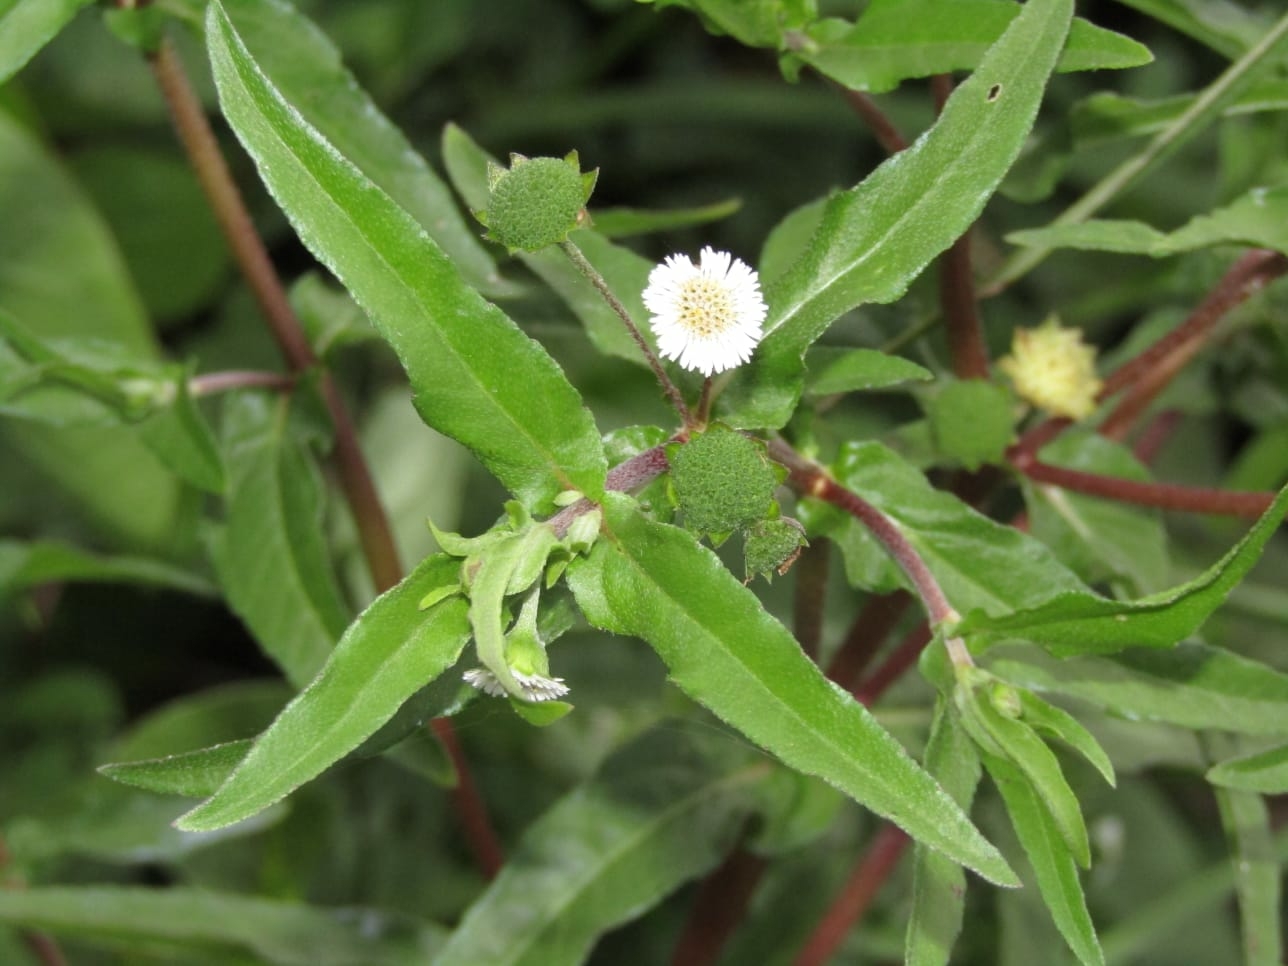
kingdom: Plantae
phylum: Tracheophyta
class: Magnoliopsida
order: Asterales
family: Asteraceae
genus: Eclipta
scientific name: Eclipta prostrata
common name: False daisy
